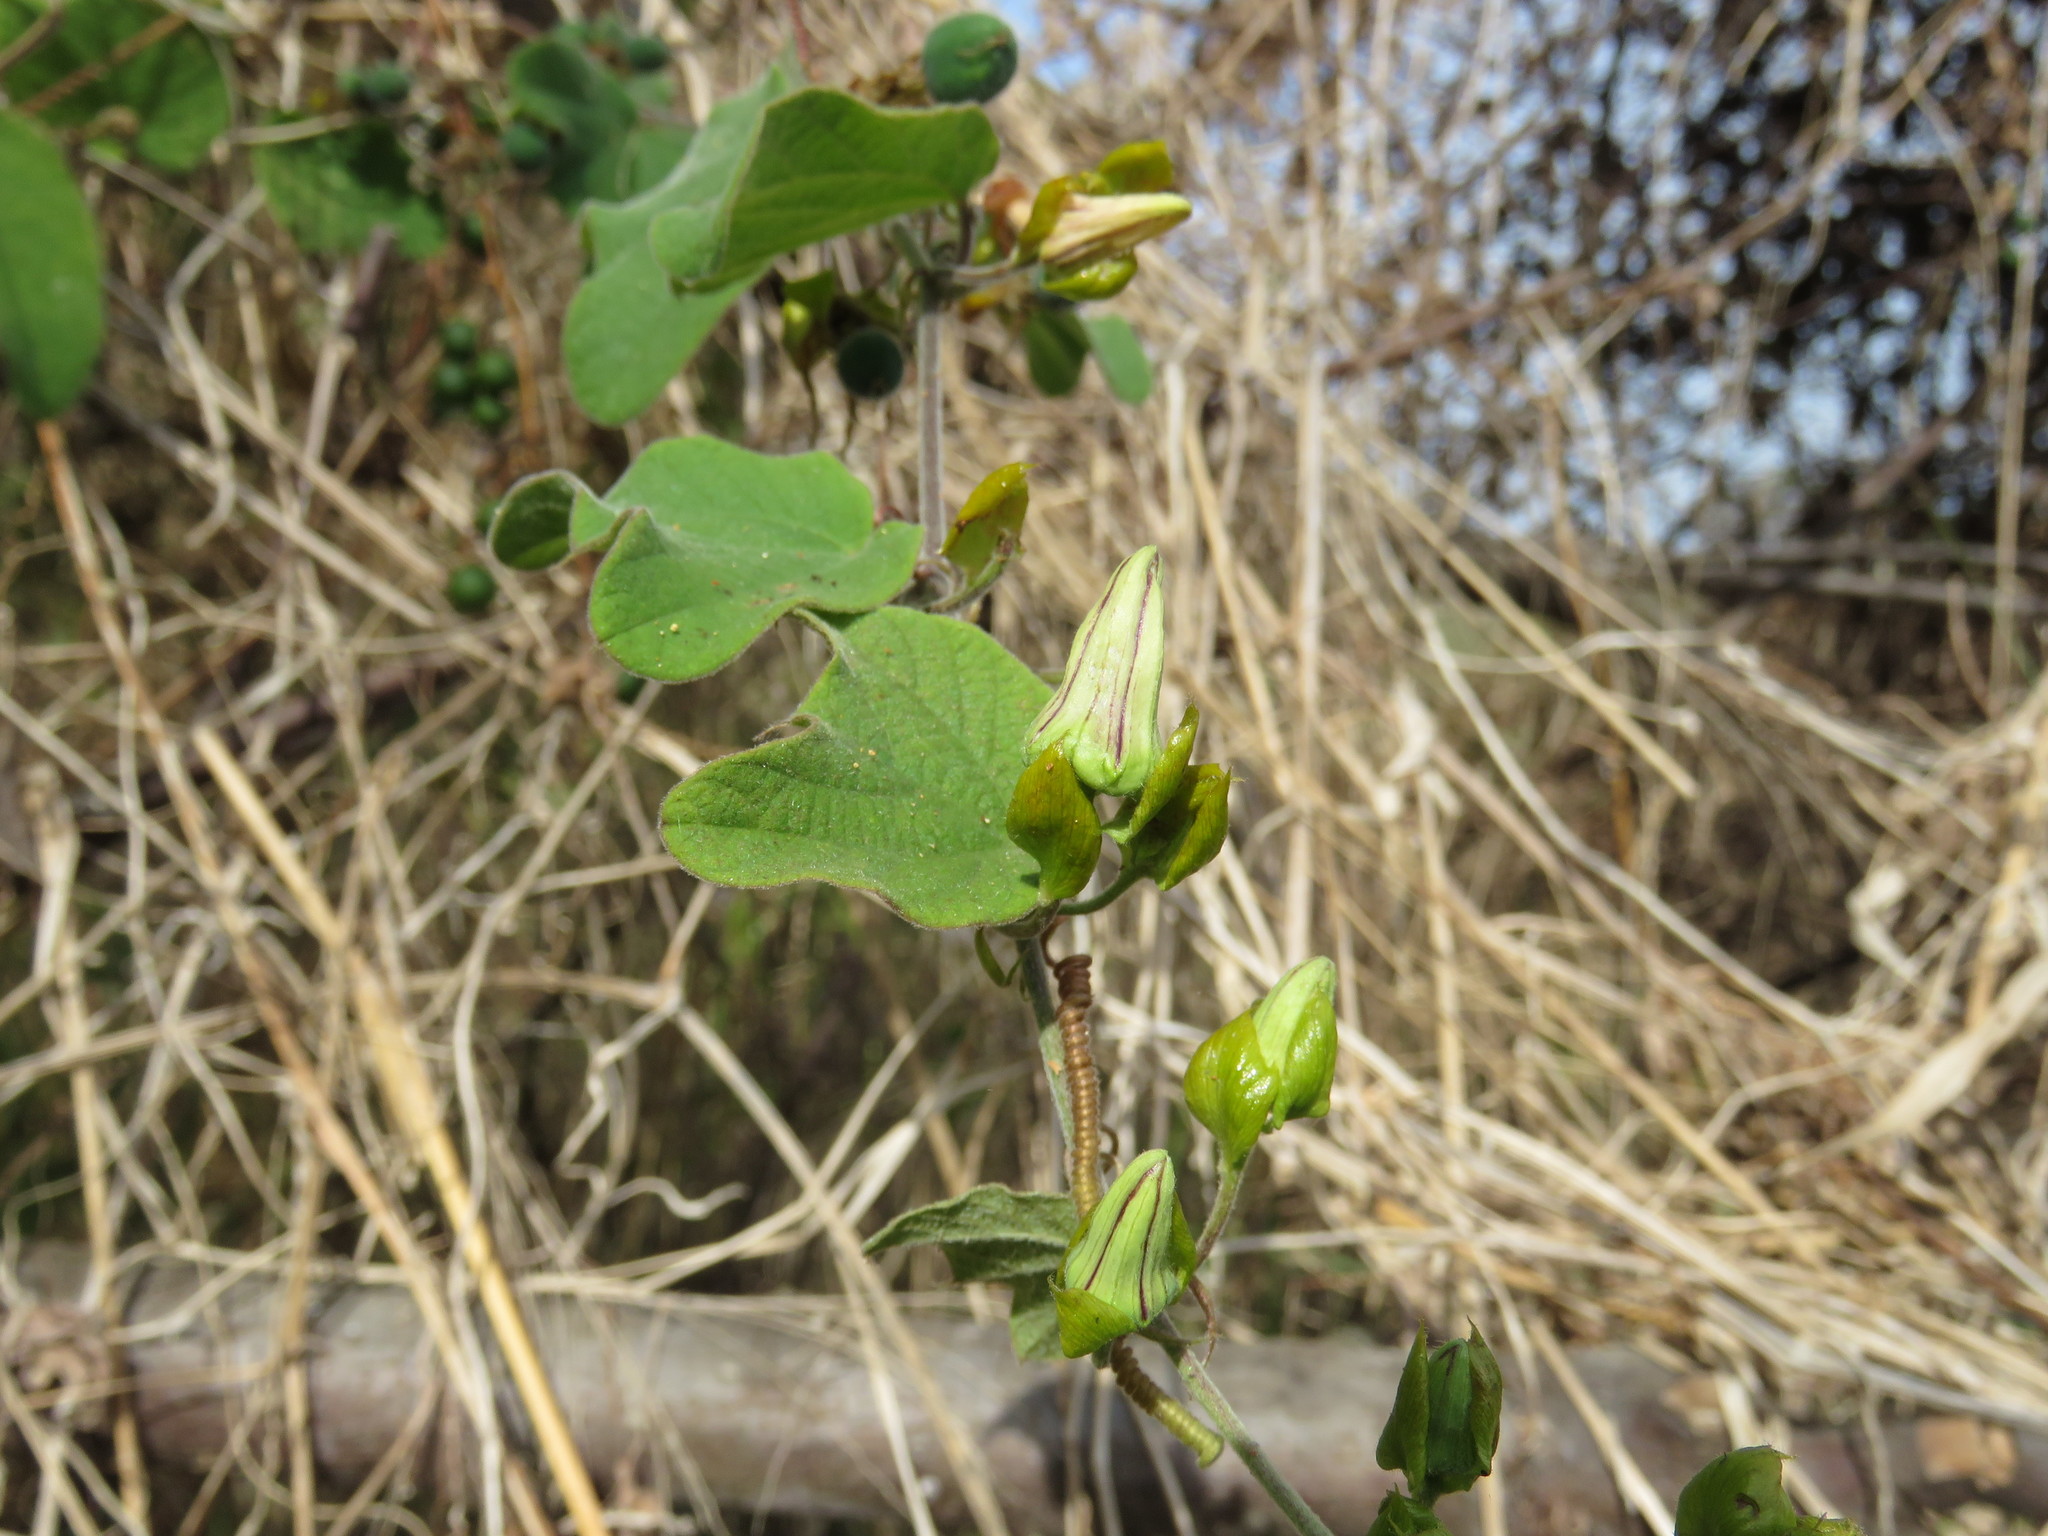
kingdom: Plantae
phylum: Tracheophyta
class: Magnoliopsida
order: Malpighiales
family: Passifloraceae
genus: Passiflora
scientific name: Passiflora porphyretica
